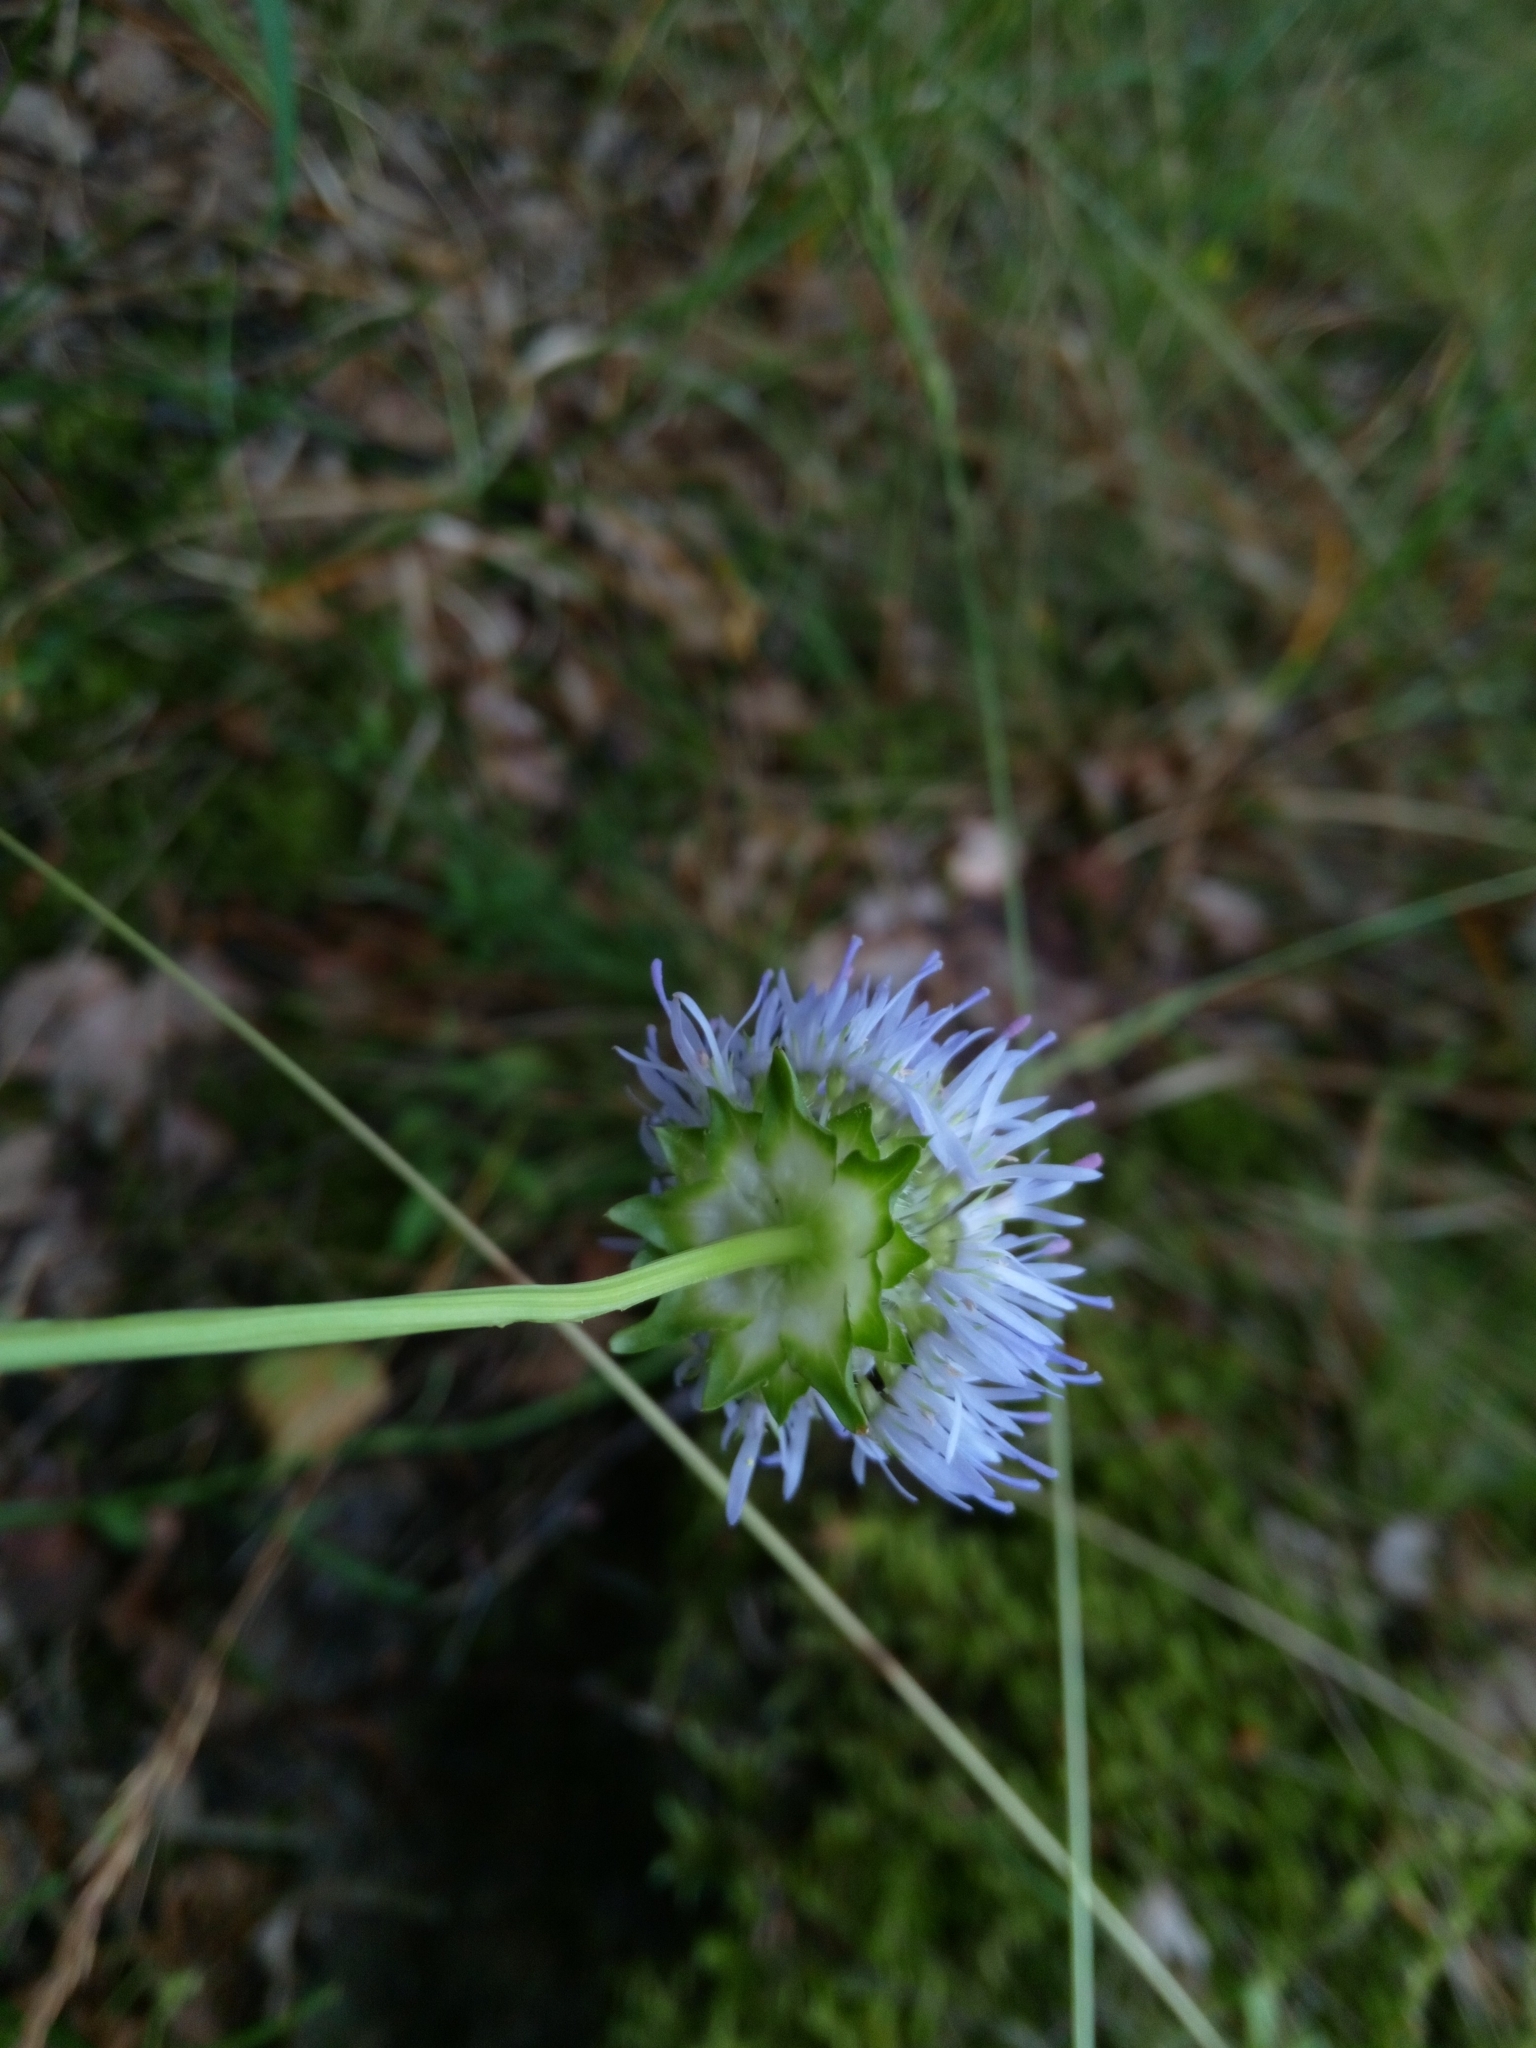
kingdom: Plantae
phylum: Tracheophyta
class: Magnoliopsida
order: Asterales
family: Campanulaceae
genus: Jasione
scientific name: Jasione montana
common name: Sheep's-bit
